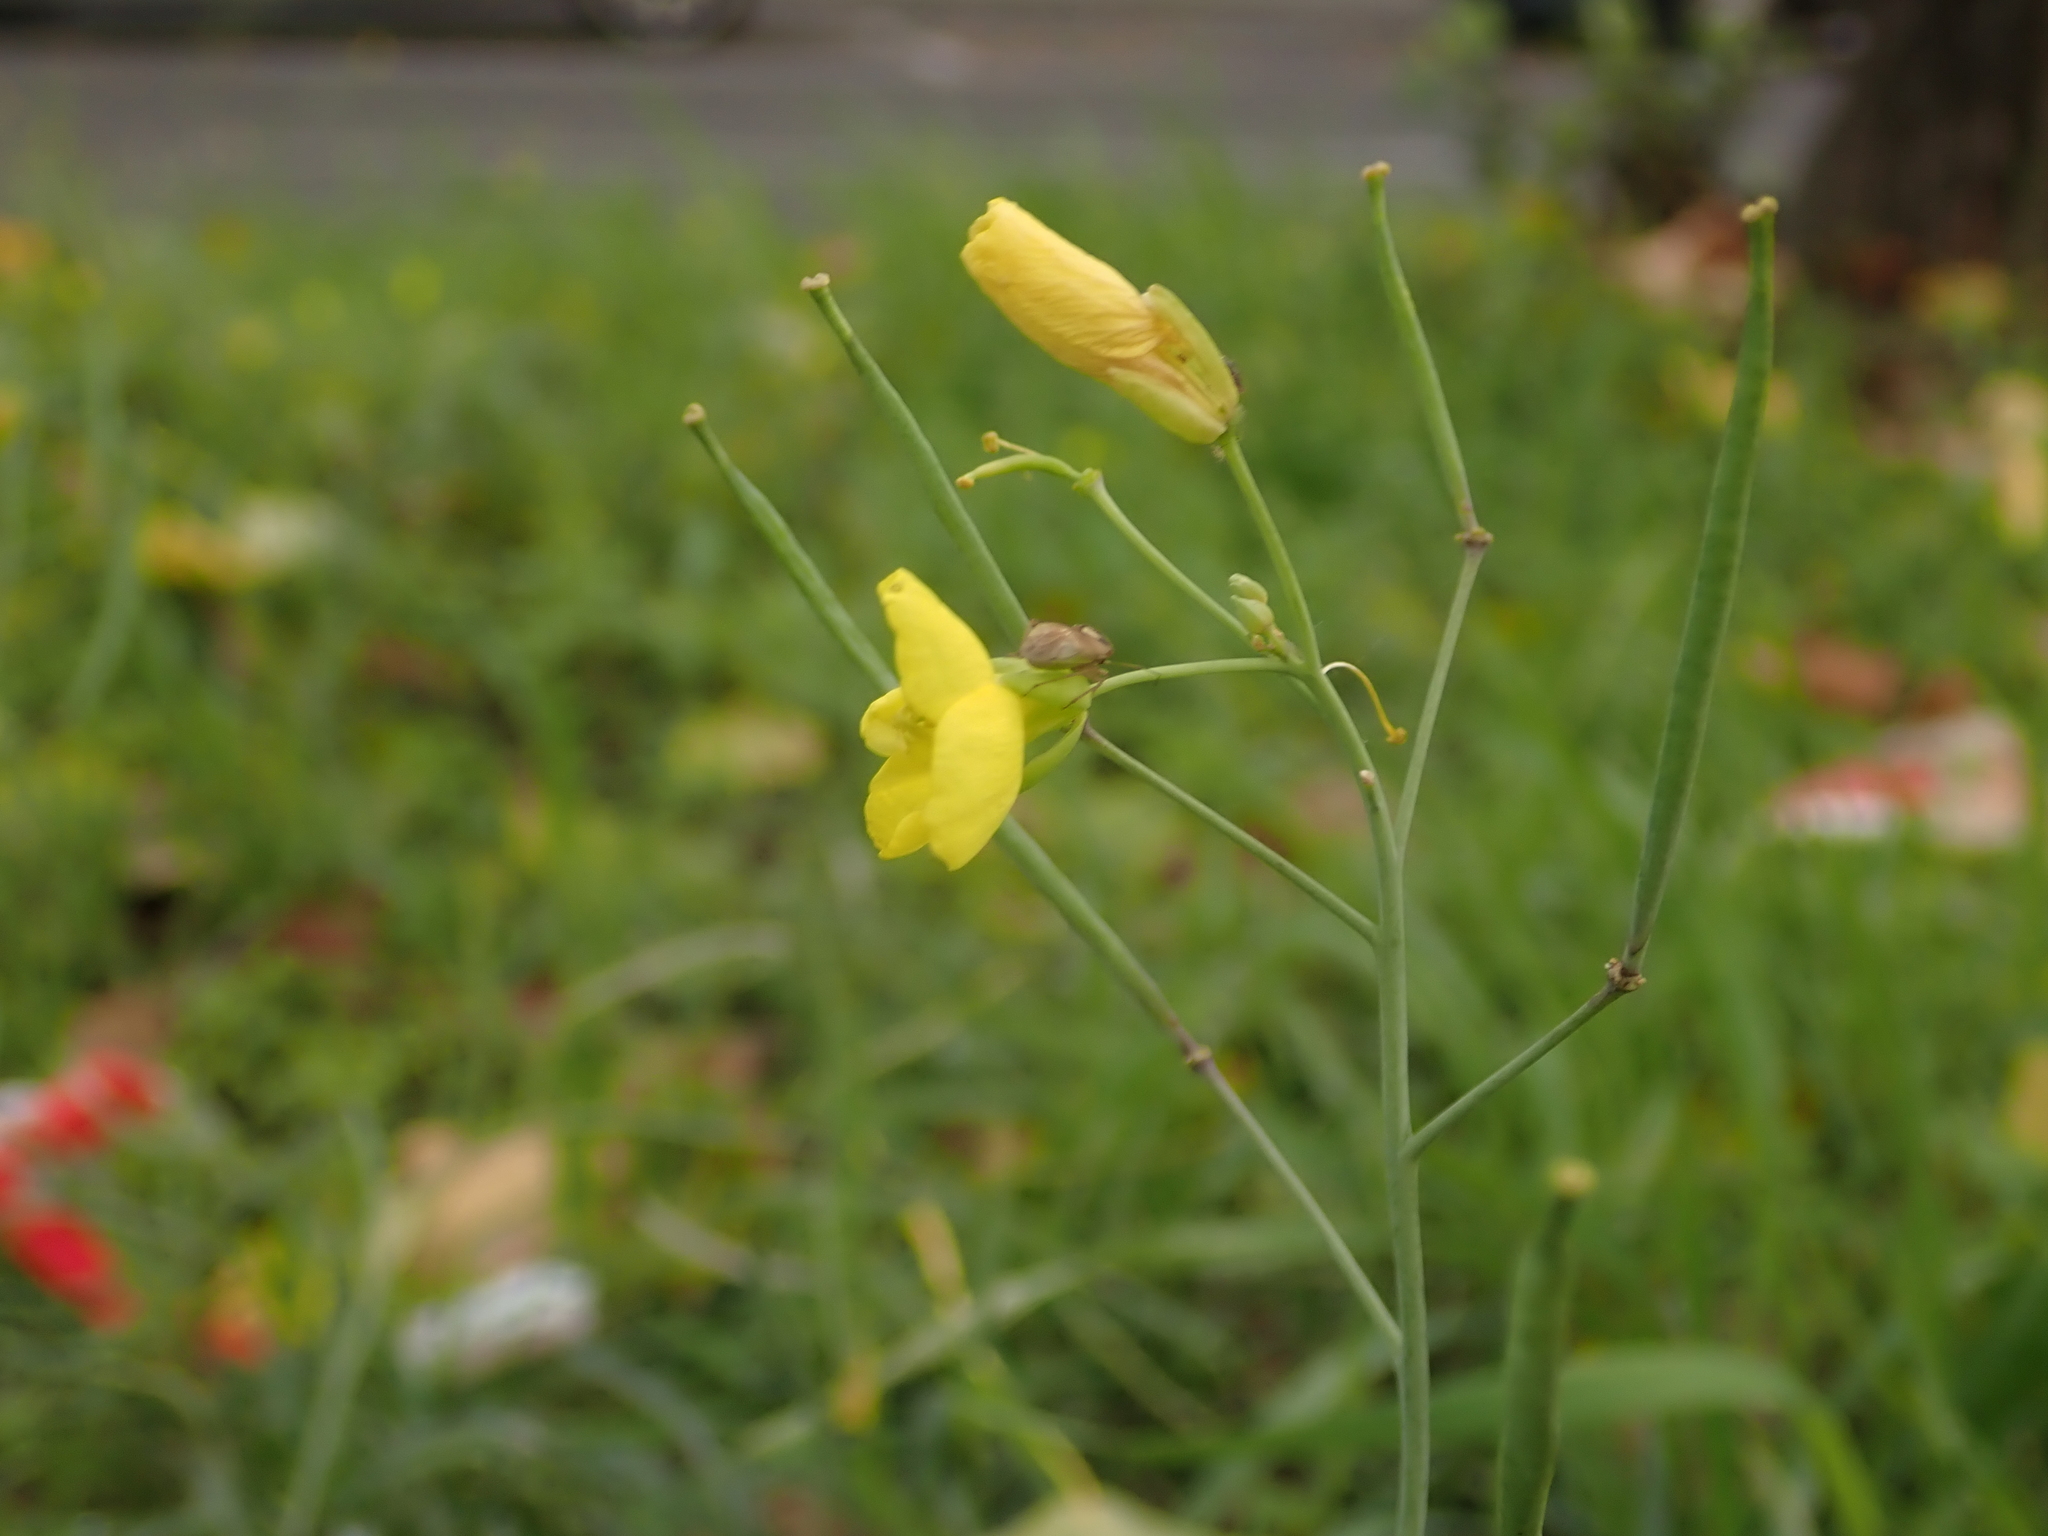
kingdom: Plantae
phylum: Tracheophyta
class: Magnoliopsida
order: Brassicales
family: Brassicaceae
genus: Diplotaxis
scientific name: Diplotaxis tenuifolia
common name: Perennial wall-rocket
